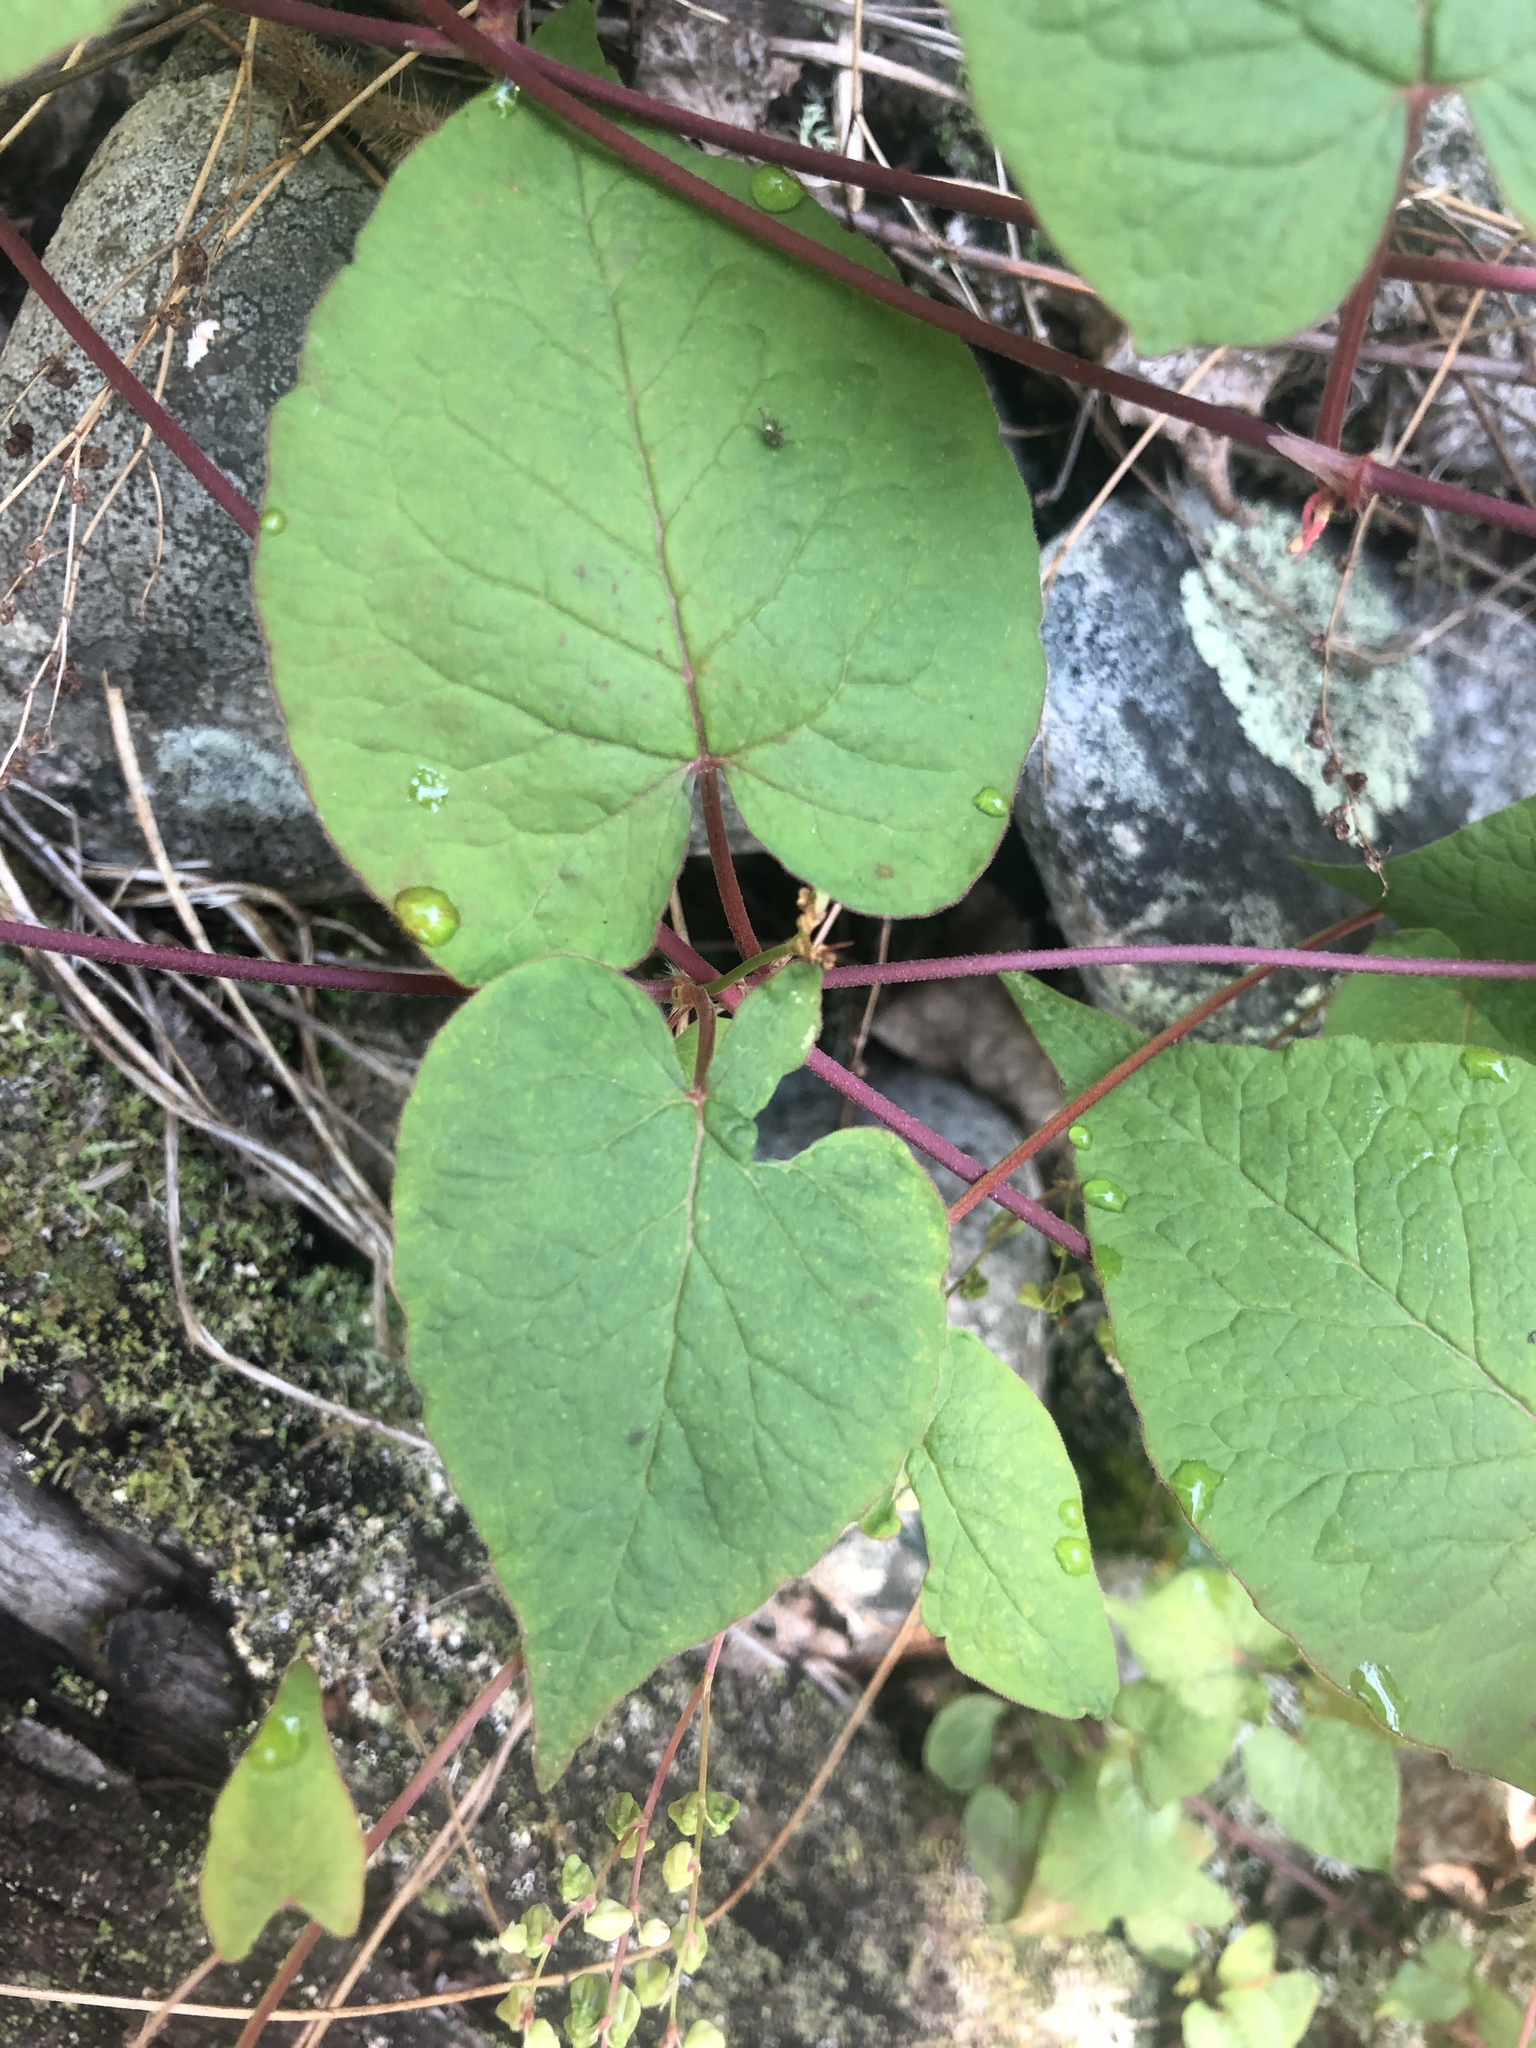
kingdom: Plantae
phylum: Tracheophyta
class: Magnoliopsida
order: Caryophyllales
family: Polygonaceae
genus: Parogonum
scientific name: Parogonum ciliinode
